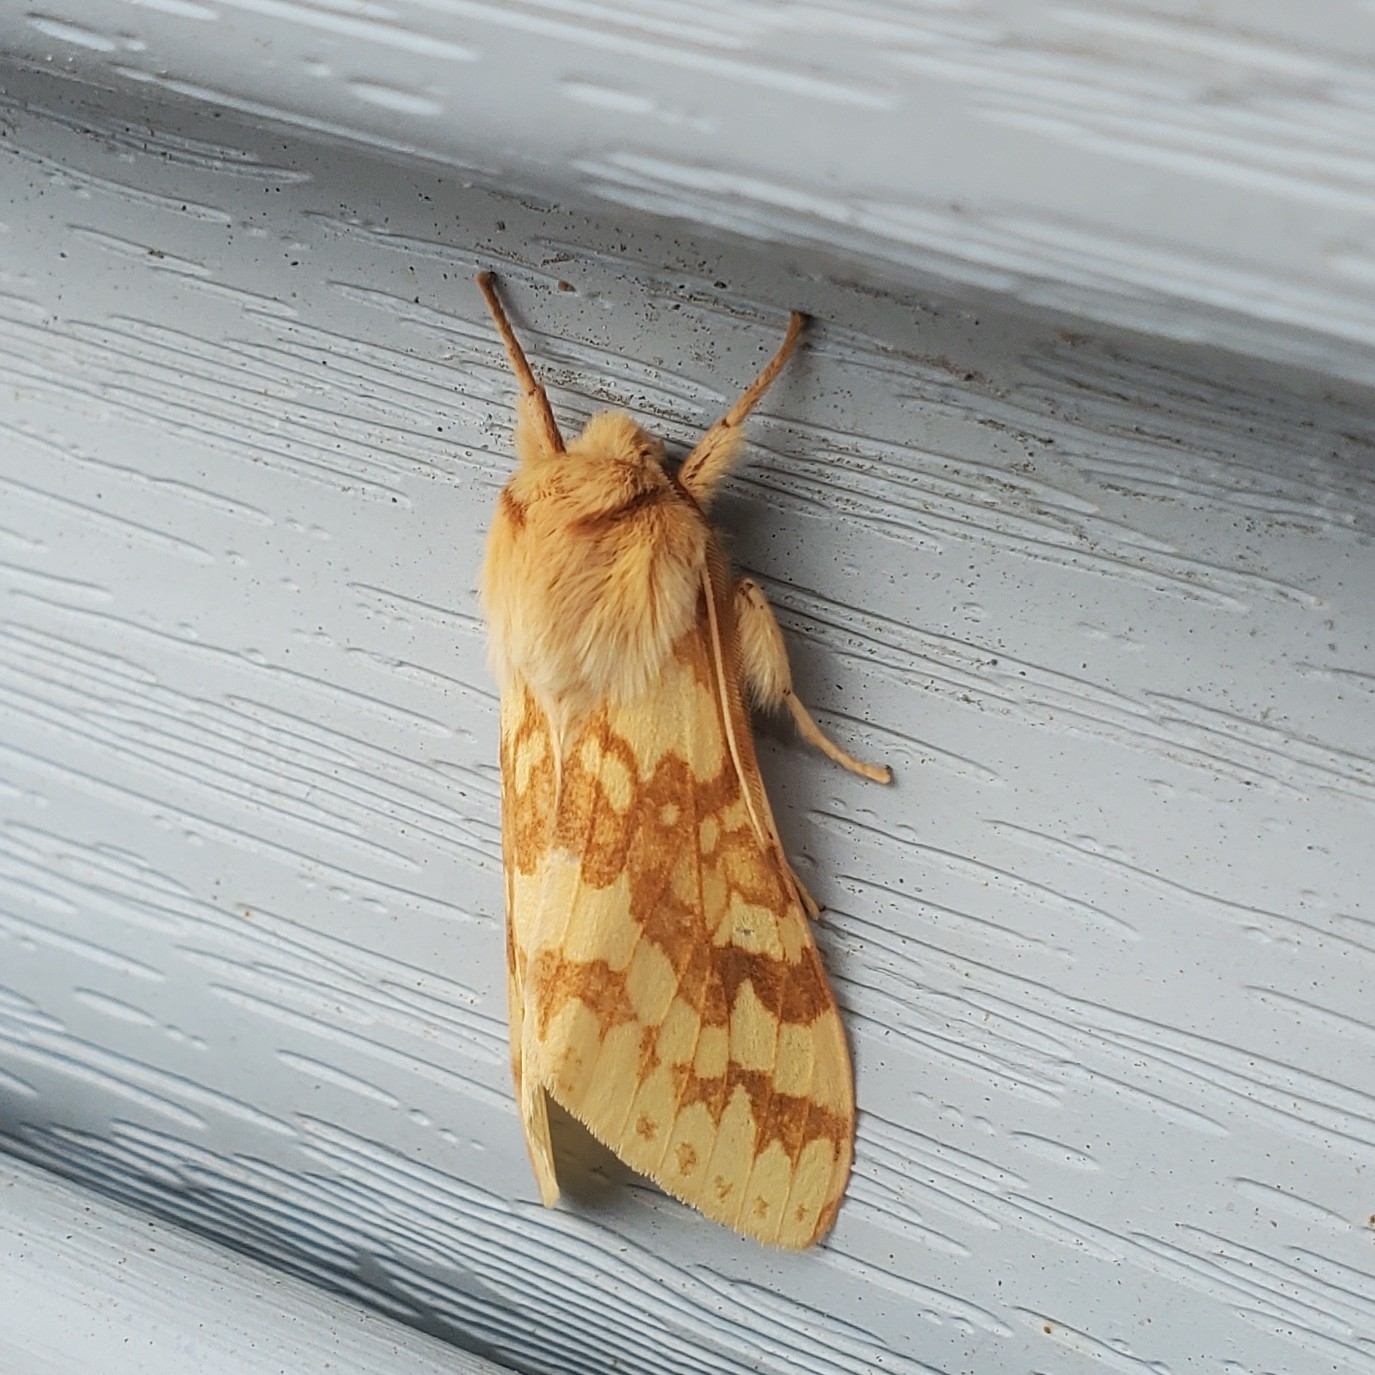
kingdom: Animalia
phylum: Arthropoda
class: Insecta
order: Lepidoptera
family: Erebidae
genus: Lophocampa
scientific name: Lophocampa maculata
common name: Spotted tussock moth
